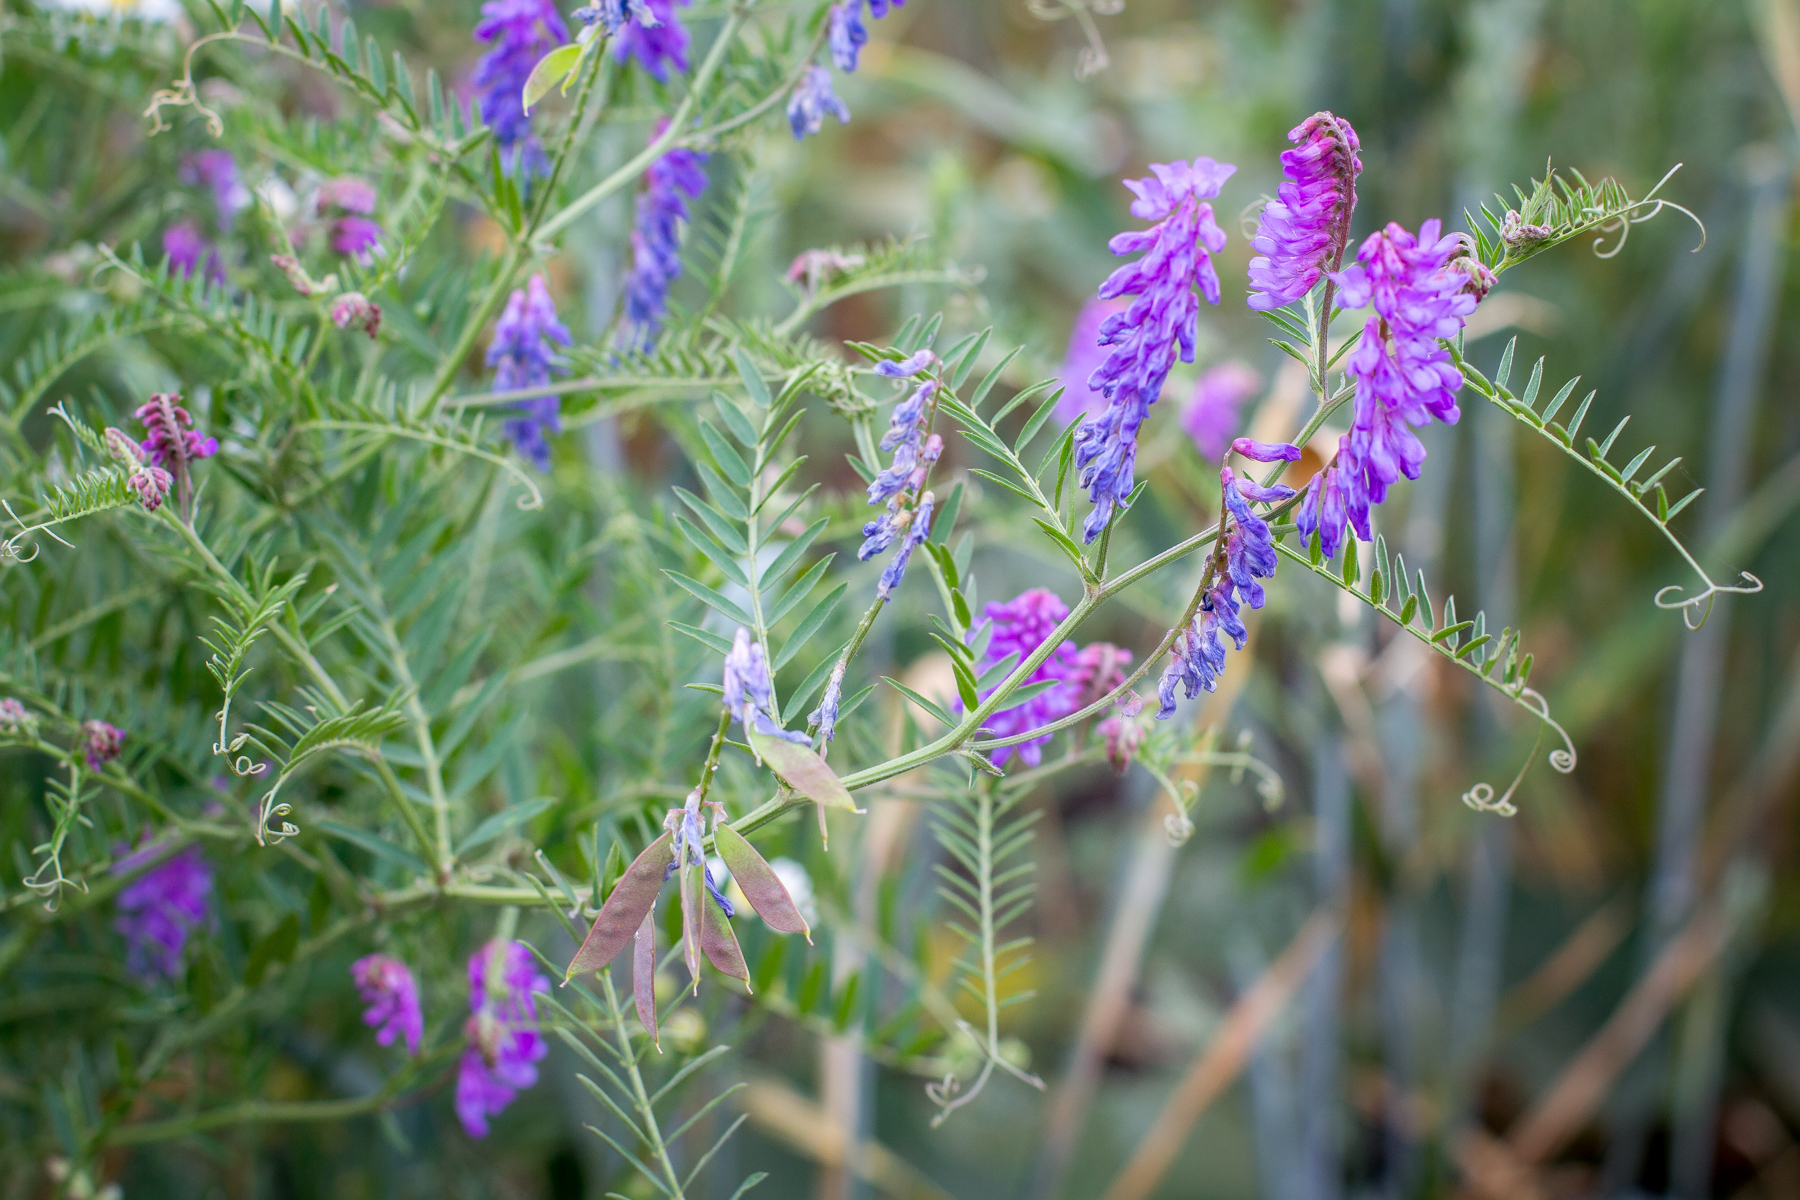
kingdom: Plantae
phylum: Tracheophyta
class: Magnoliopsida
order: Fabales
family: Fabaceae
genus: Vicia
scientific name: Vicia cracca
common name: Bird vetch
